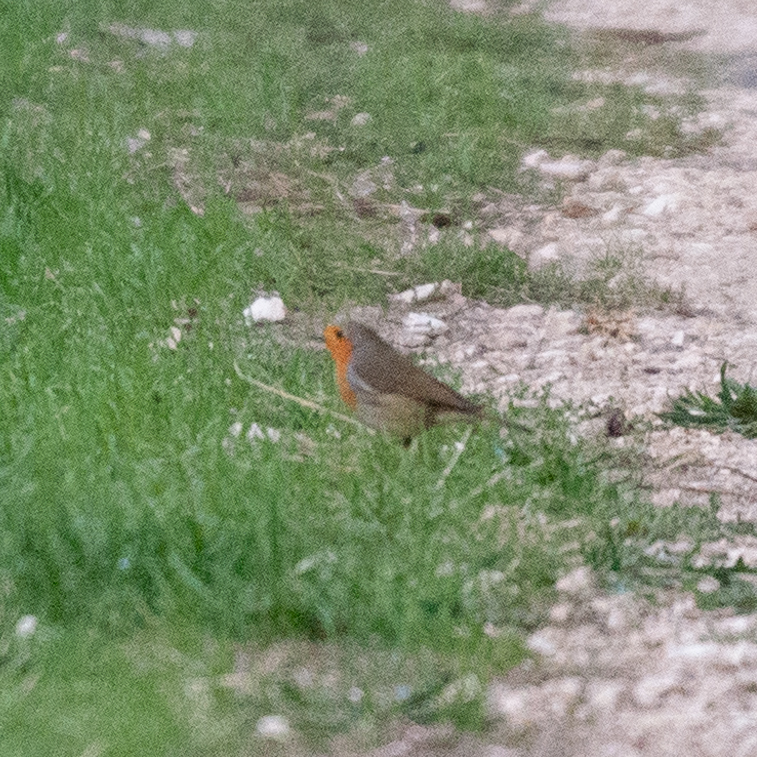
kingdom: Animalia
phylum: Chordata
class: Aves
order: Passeriformes
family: Muscicapidae
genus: Erithacus
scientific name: Erithacus rubecula
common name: European robin
